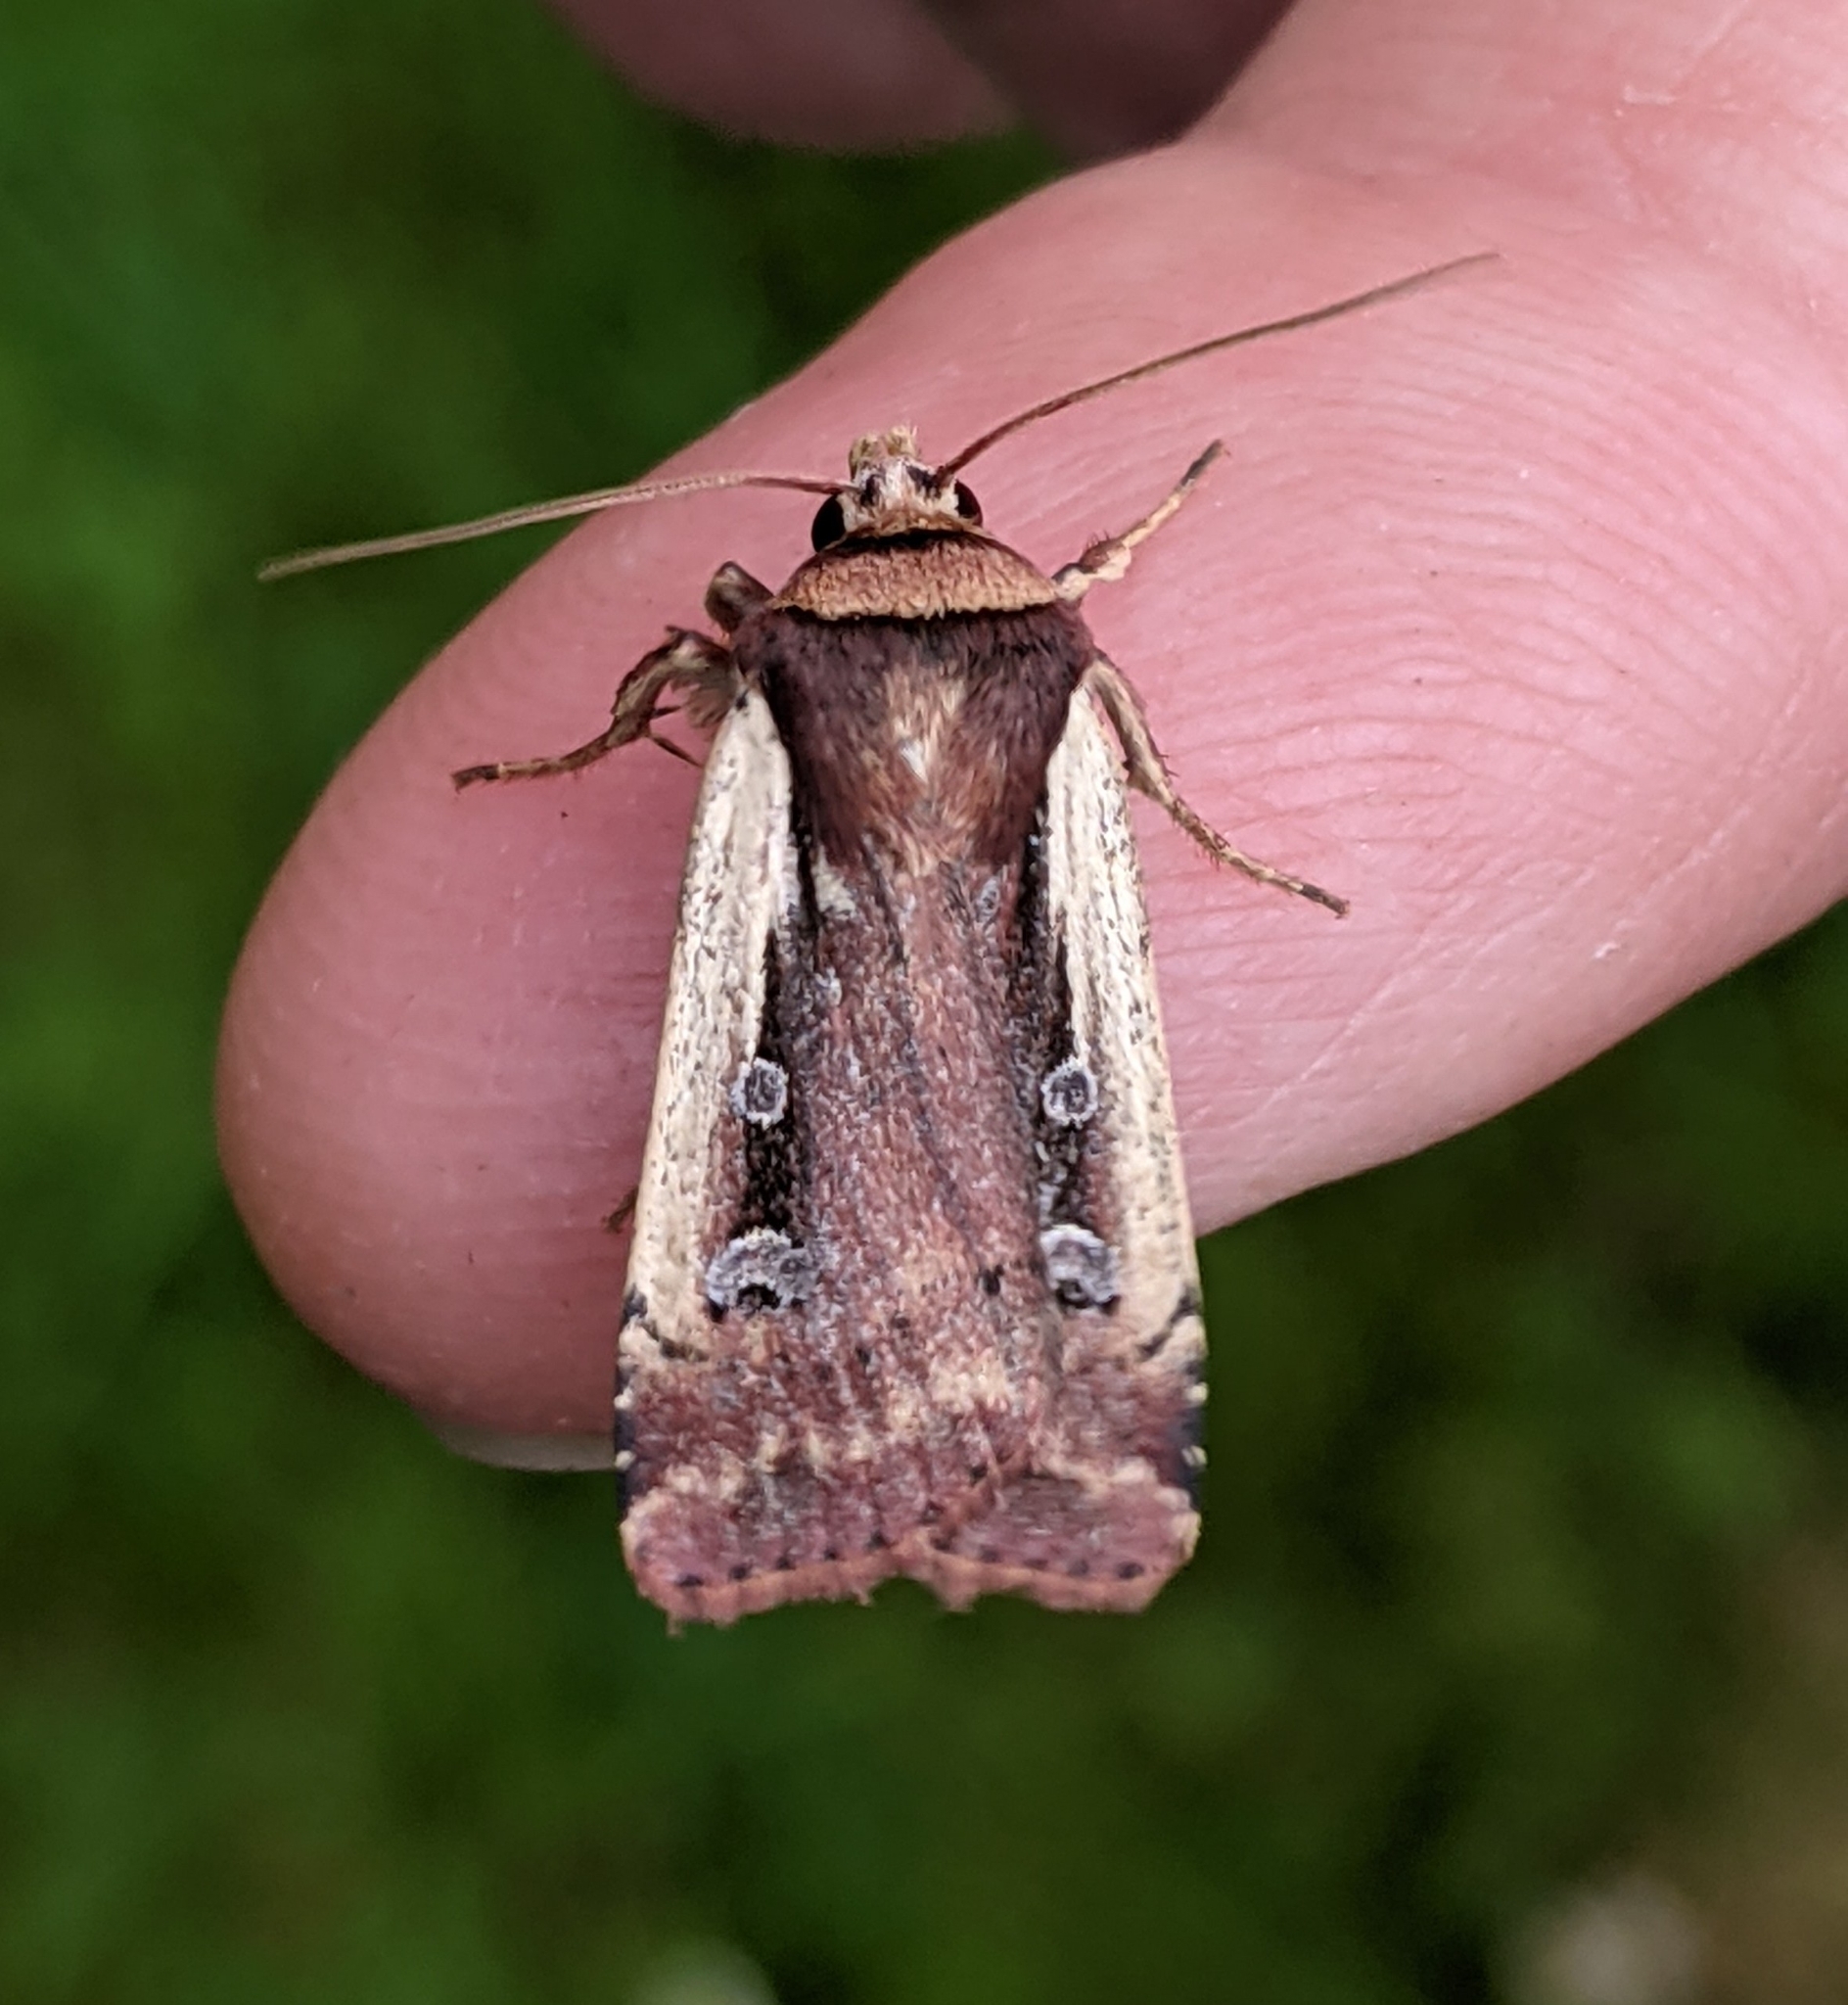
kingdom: Animalia
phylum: Arthropoda
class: Insecta
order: Lepidoptera
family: Noctuidae
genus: Ochropleura
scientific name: Ochropleura implecta
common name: Flame-shouldered dart
